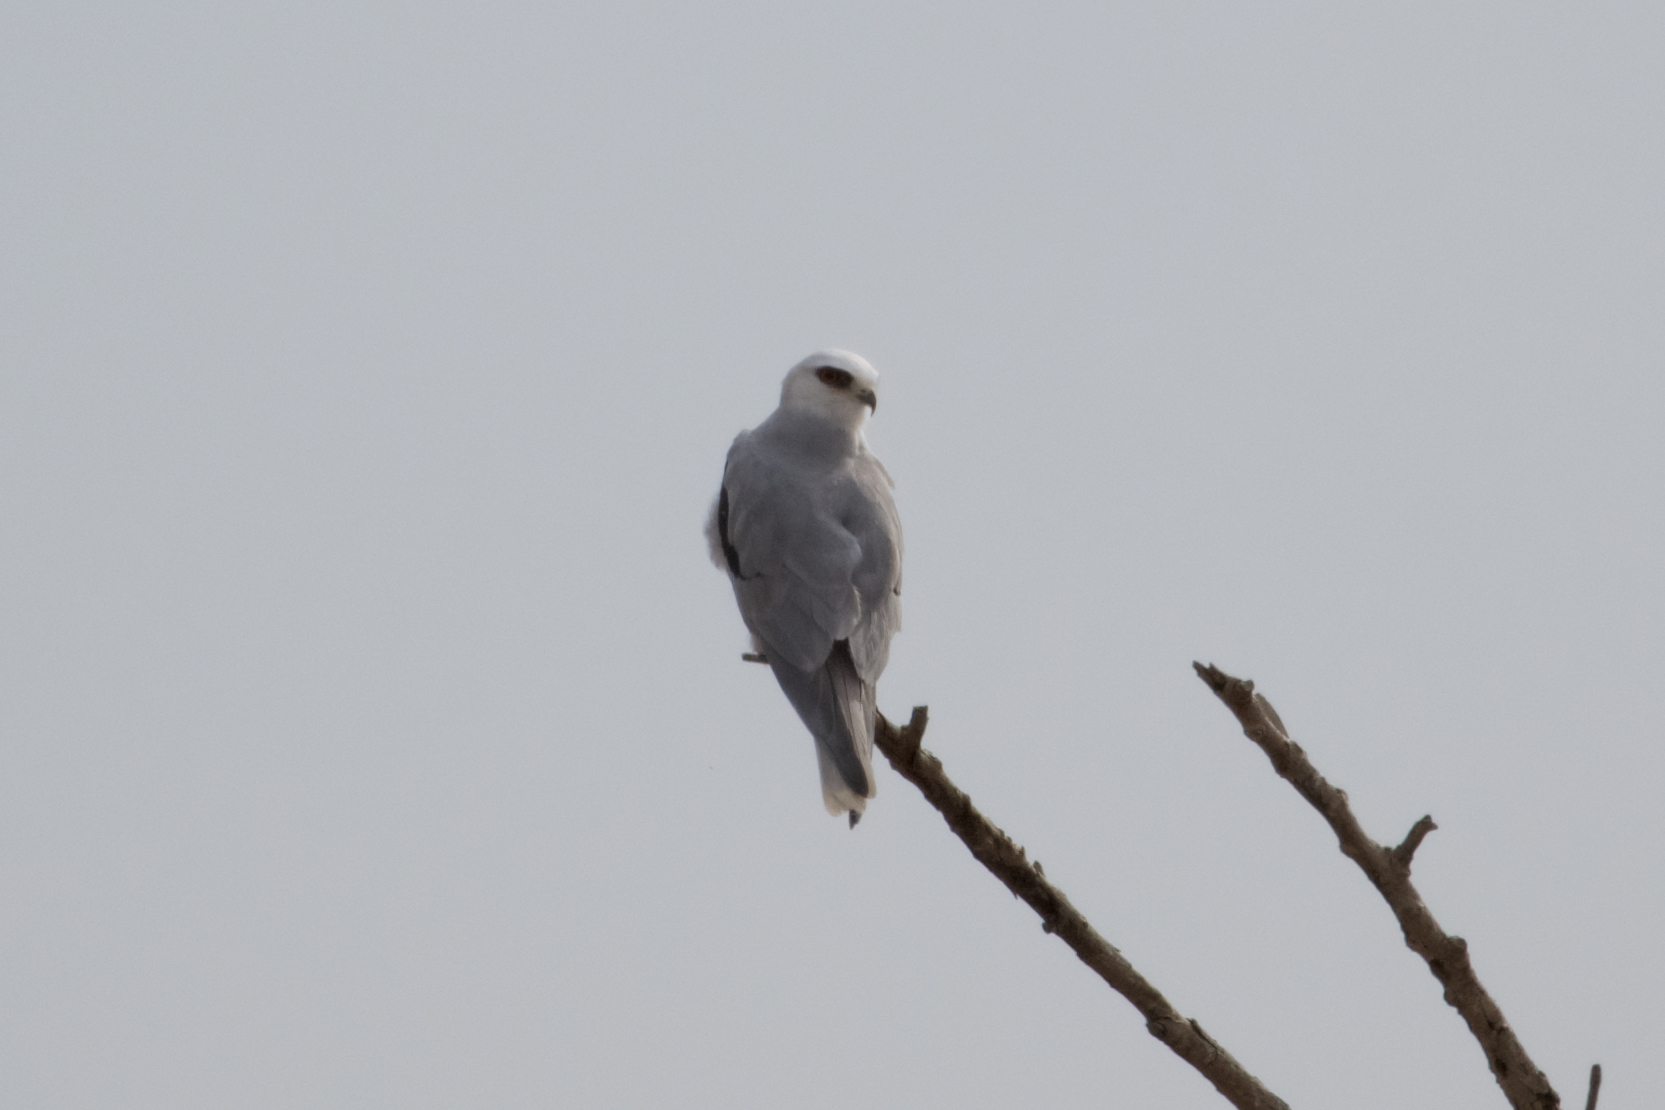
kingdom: Animalia
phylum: Chordata
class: Aves
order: Accipitriformes
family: Accipitridae
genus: Elanus
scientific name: Elanus leucurus
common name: White-tailed kite
